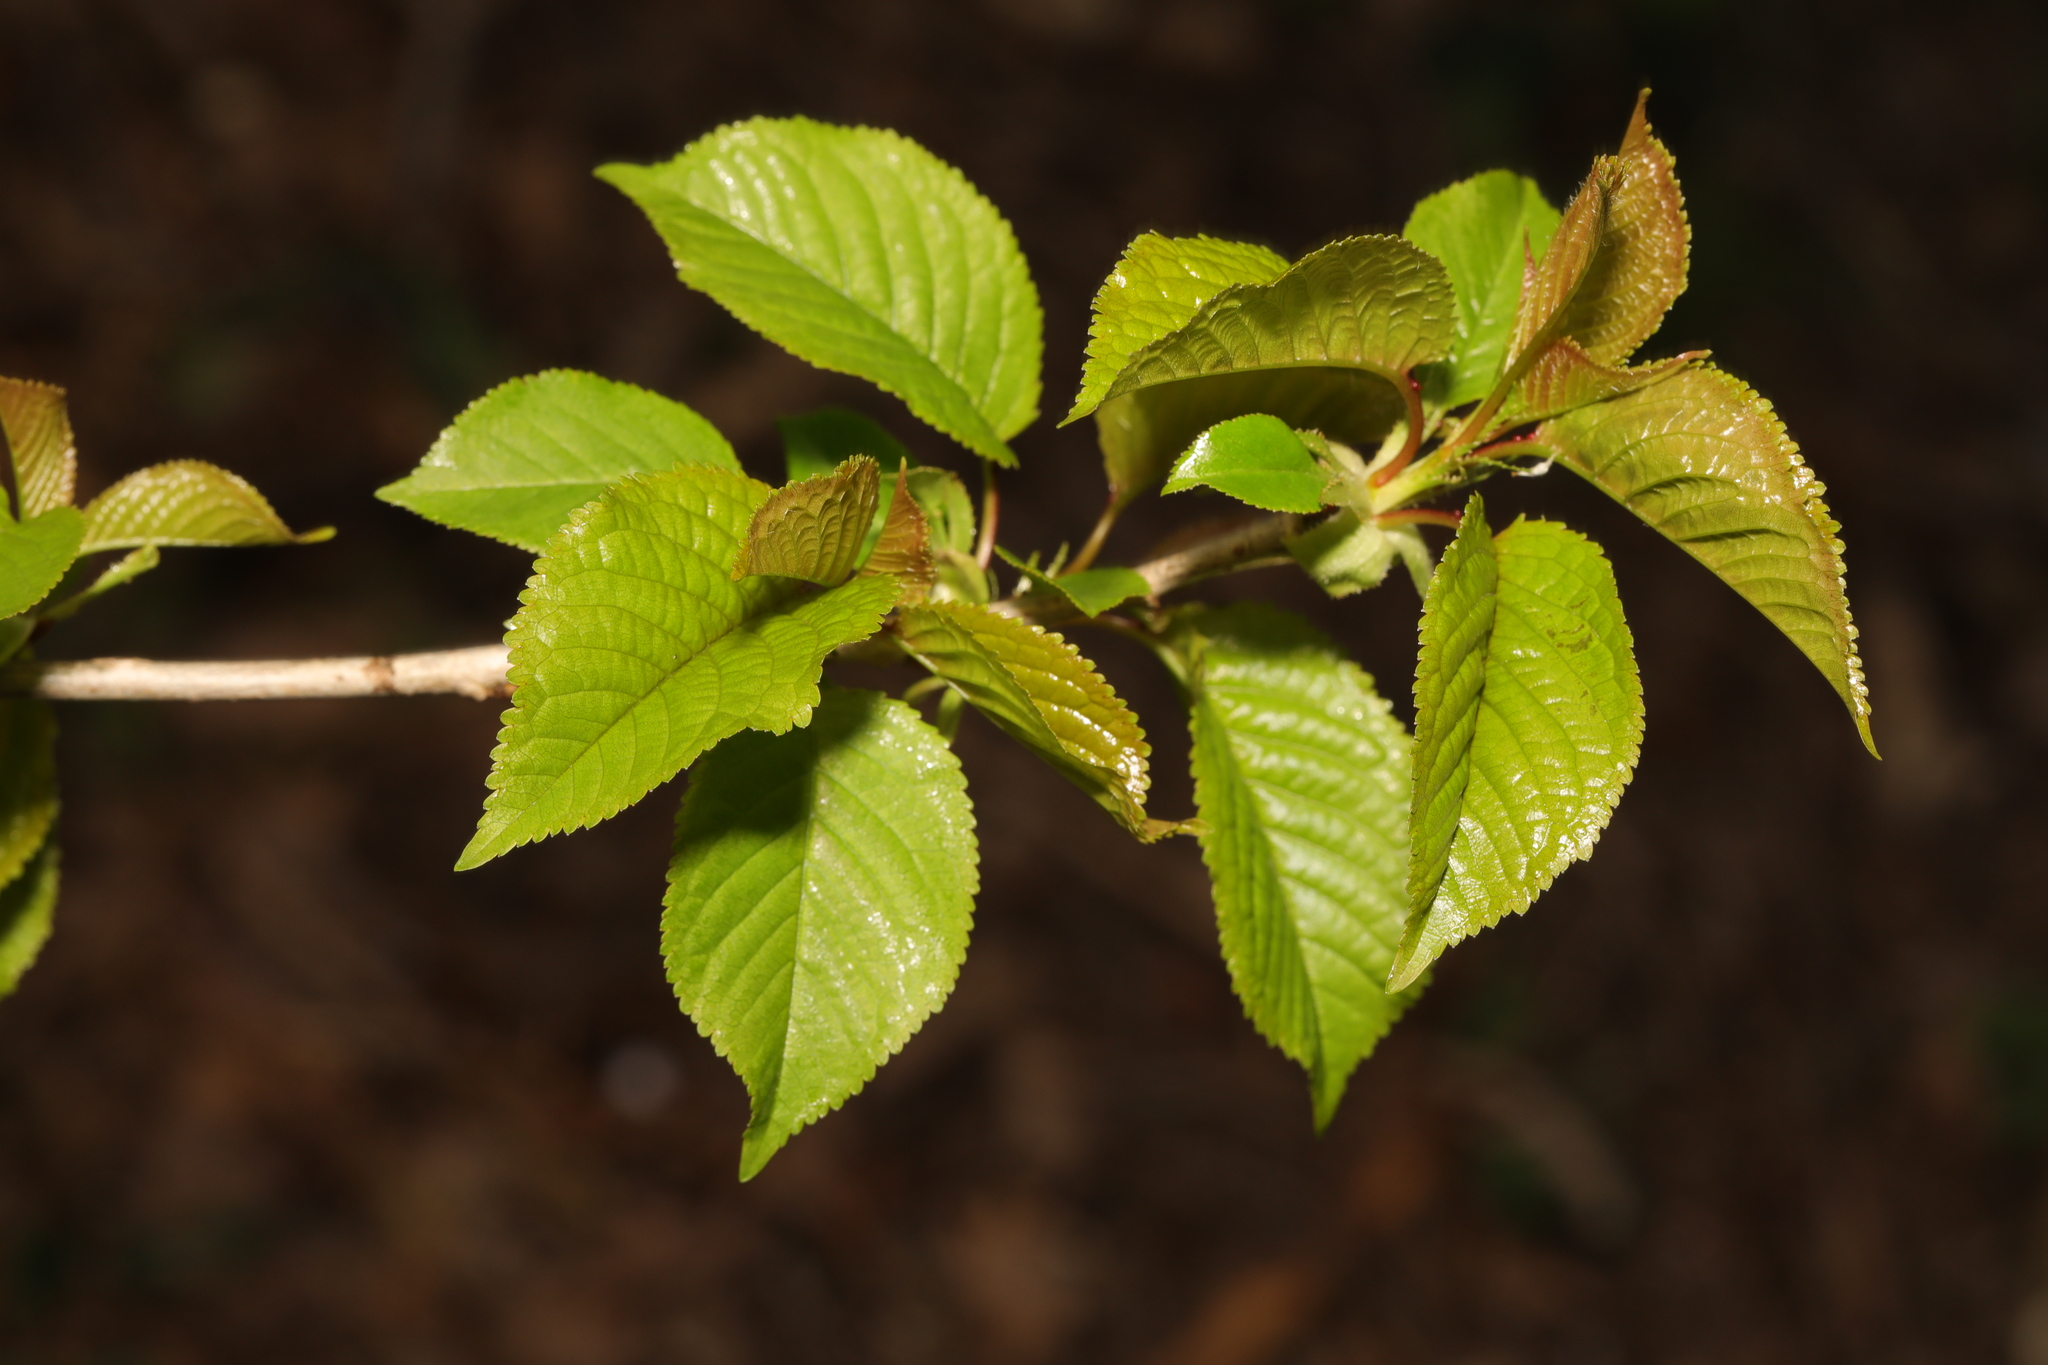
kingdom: Plantae
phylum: Tracheophyta
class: Magnoliopsida
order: Rosales
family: Rosaceae
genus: Prunus
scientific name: Prunus avium
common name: Sweet cherry
